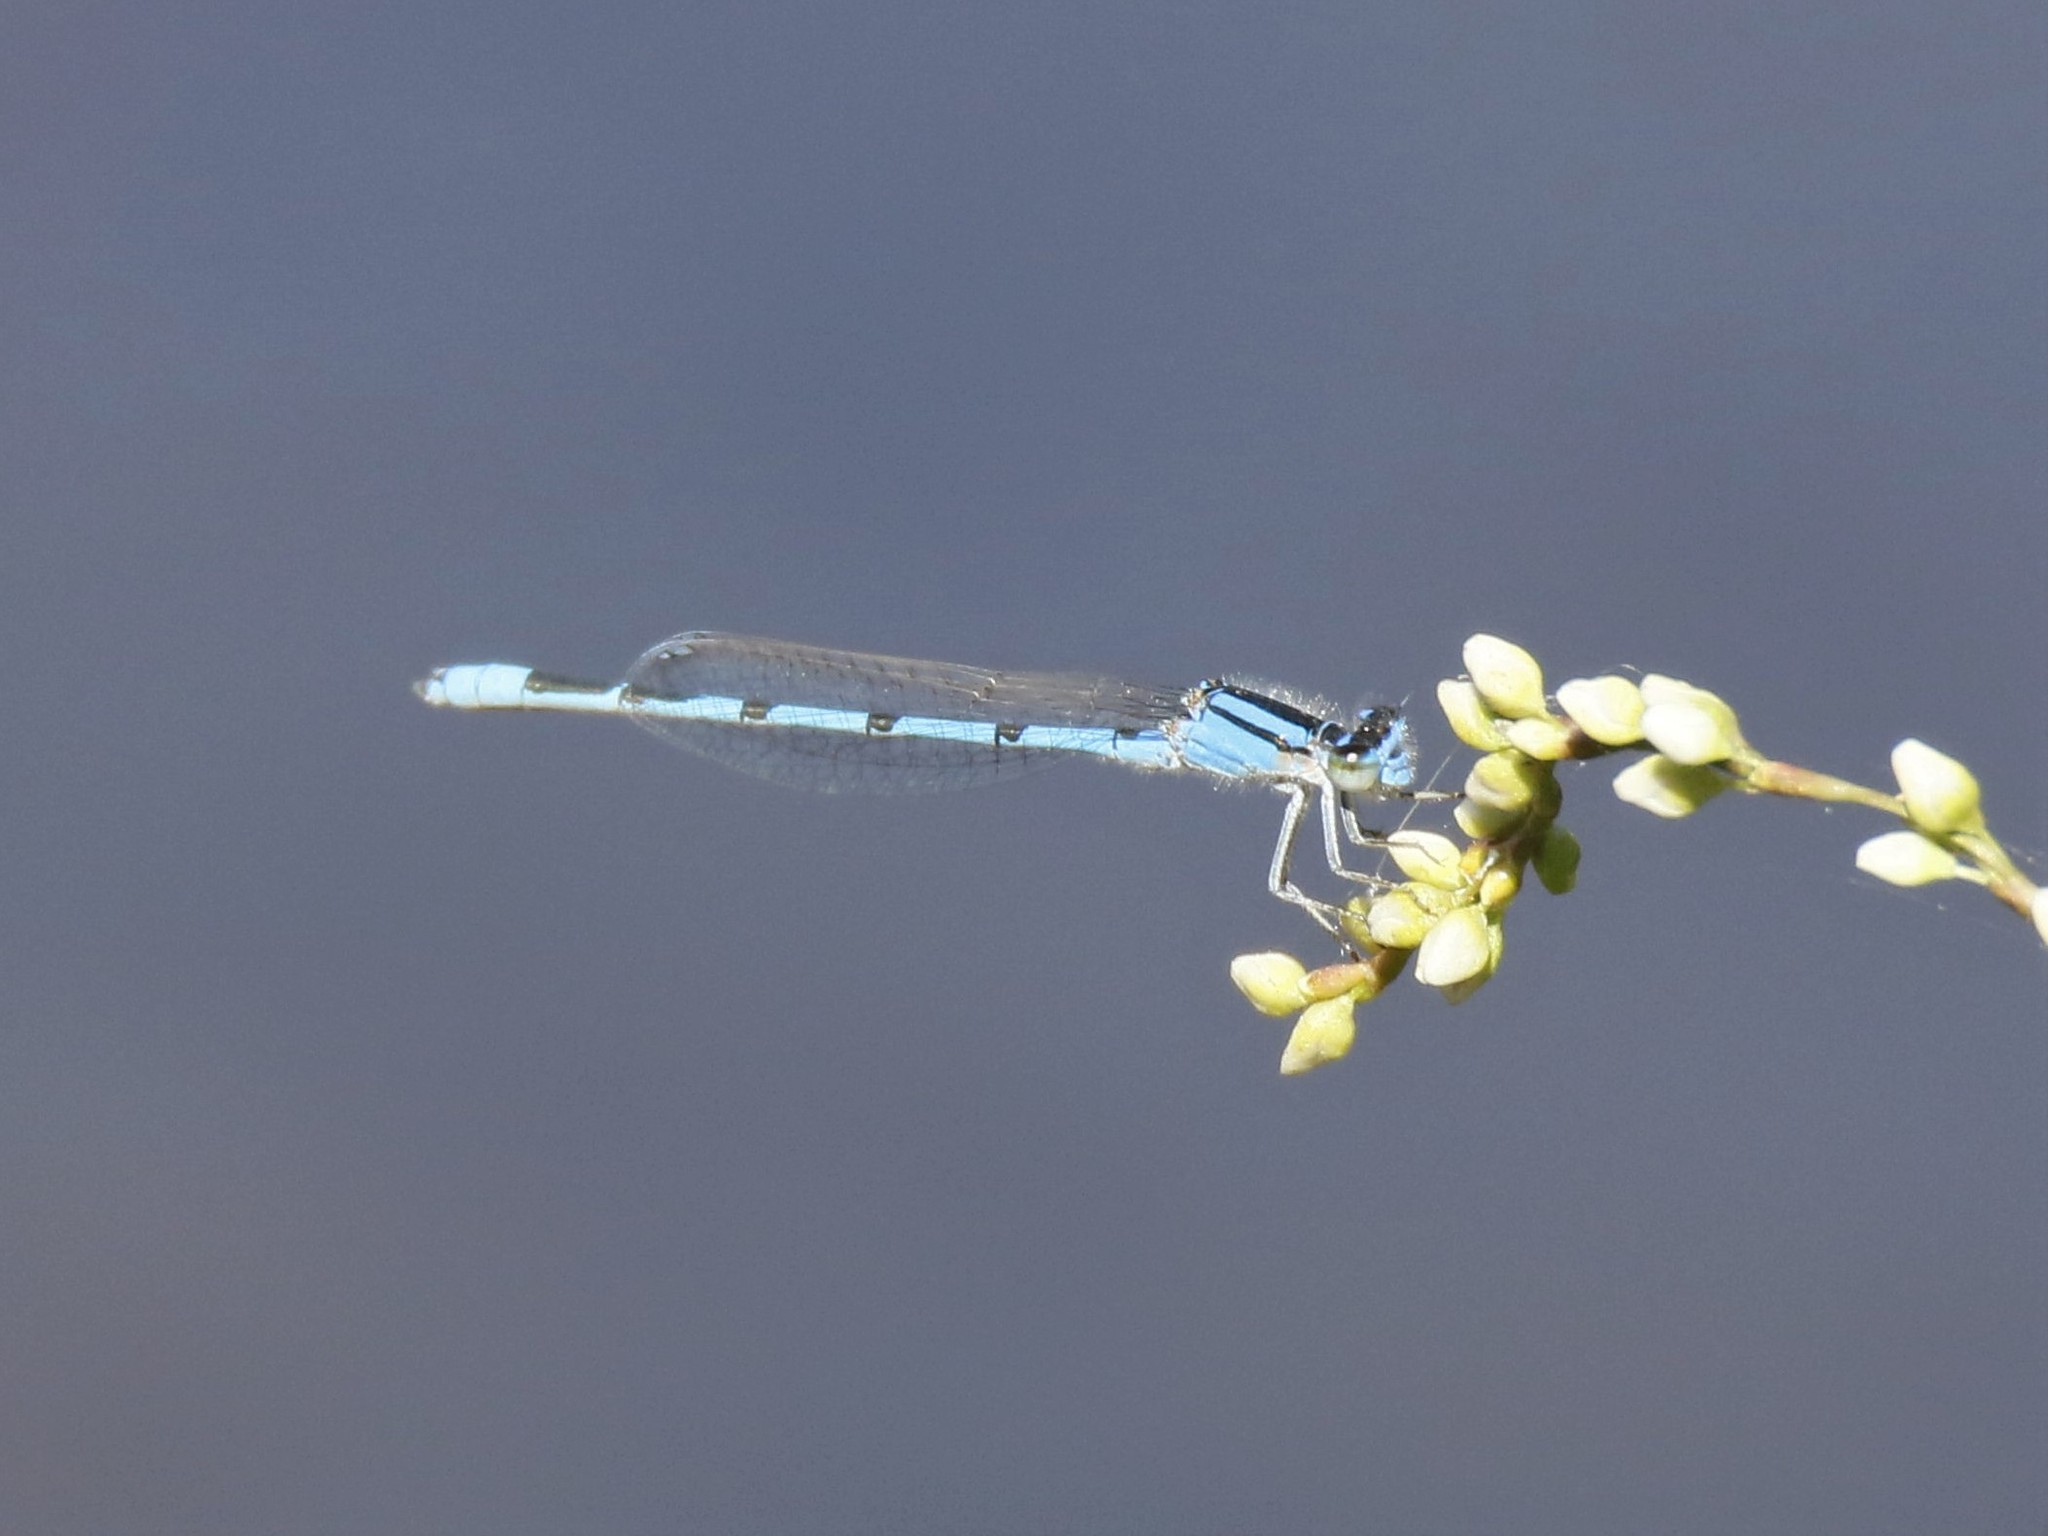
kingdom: Animalia
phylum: Arthropoda
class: Insecta
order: Odonata
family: Coenagrionidae
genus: Enallagma
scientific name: Enallagma civile
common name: Damselfly
